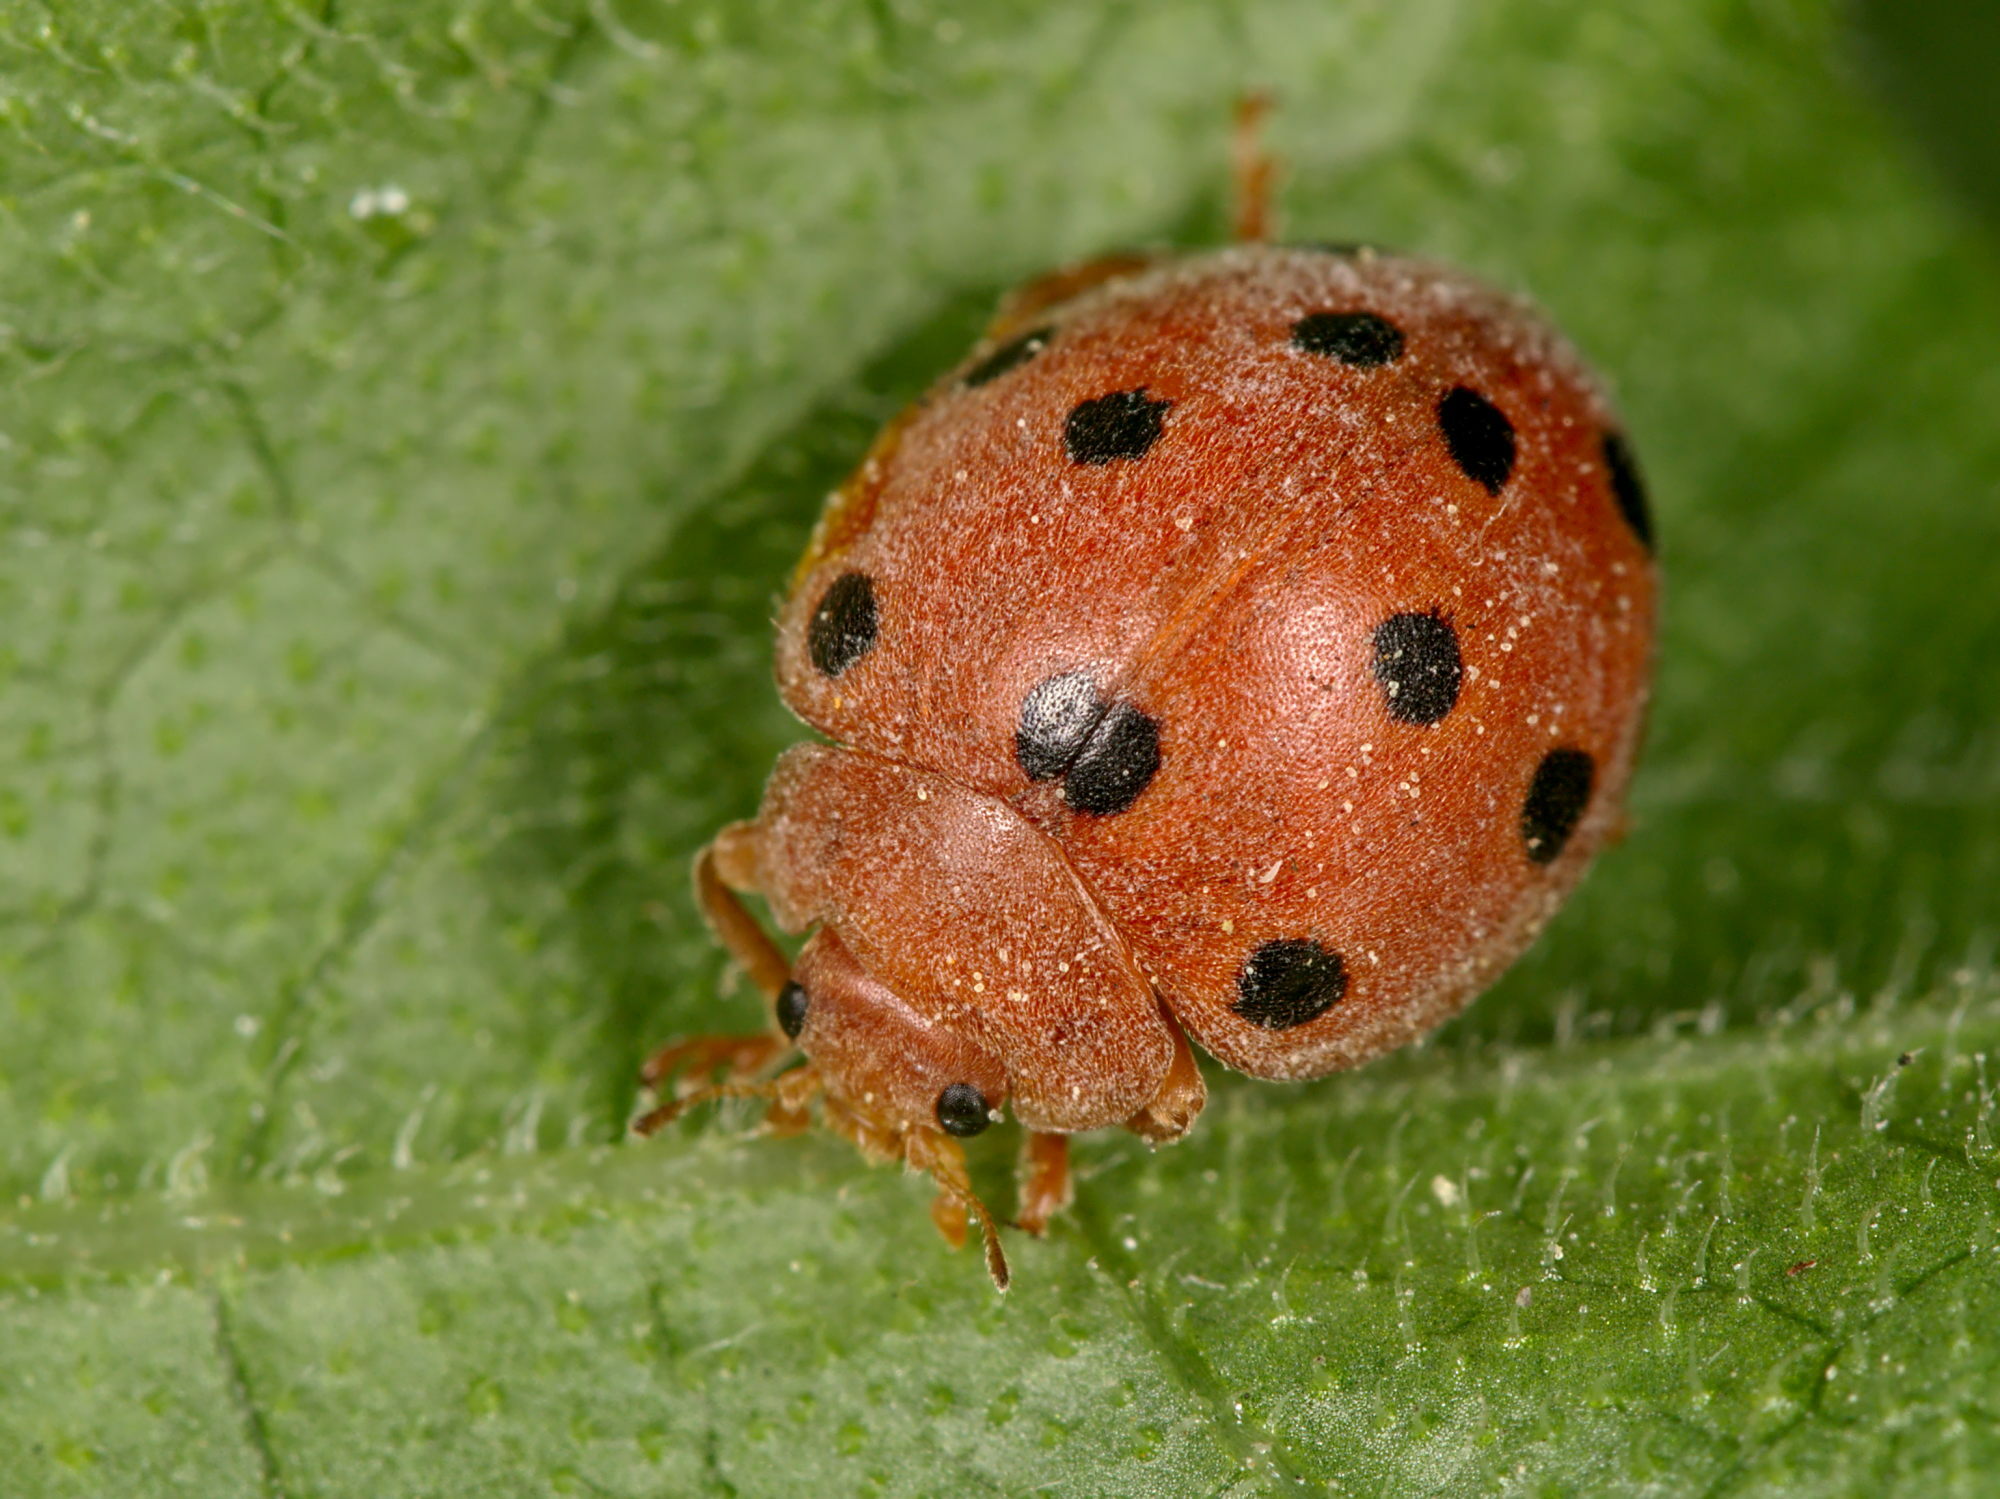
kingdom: Animalia
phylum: Arthropoda
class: Insecta
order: Coleoptera
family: Coccinellidae
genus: Henosepilachna
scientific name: Henosepilachna argus
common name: Bryony ladybird
